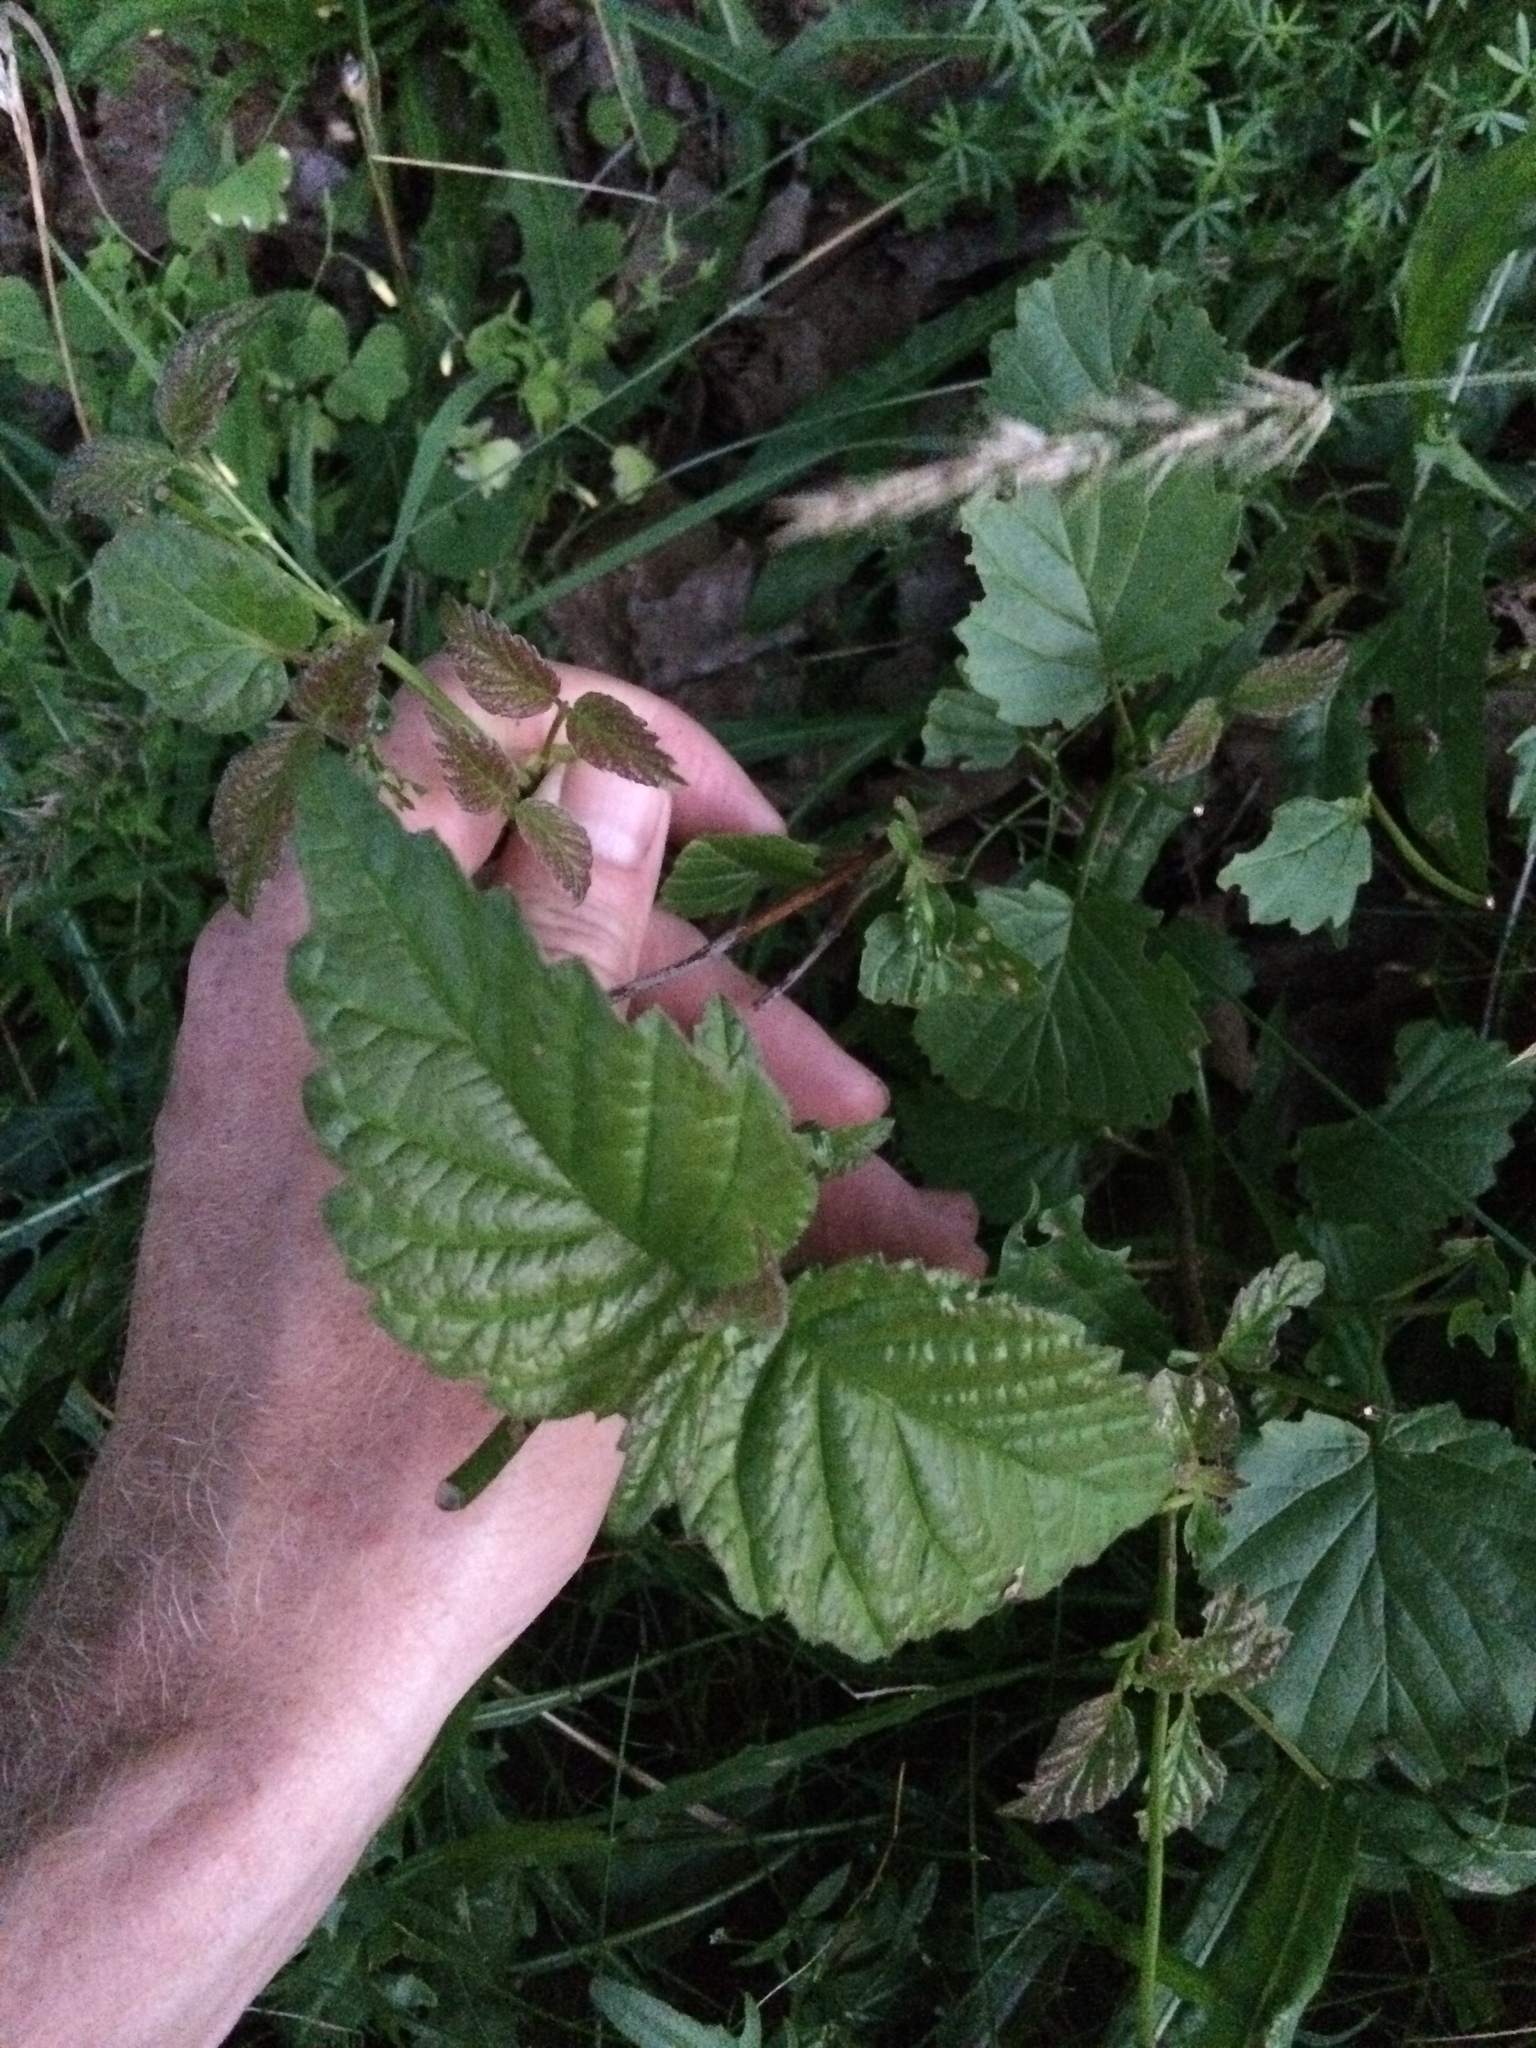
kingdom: Plantae
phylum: Tracheophyta
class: Magnoliopsida
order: Dipsacales
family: Viburnaceae
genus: Viburnum
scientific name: Viburnum dentatum
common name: Arrow-wood
